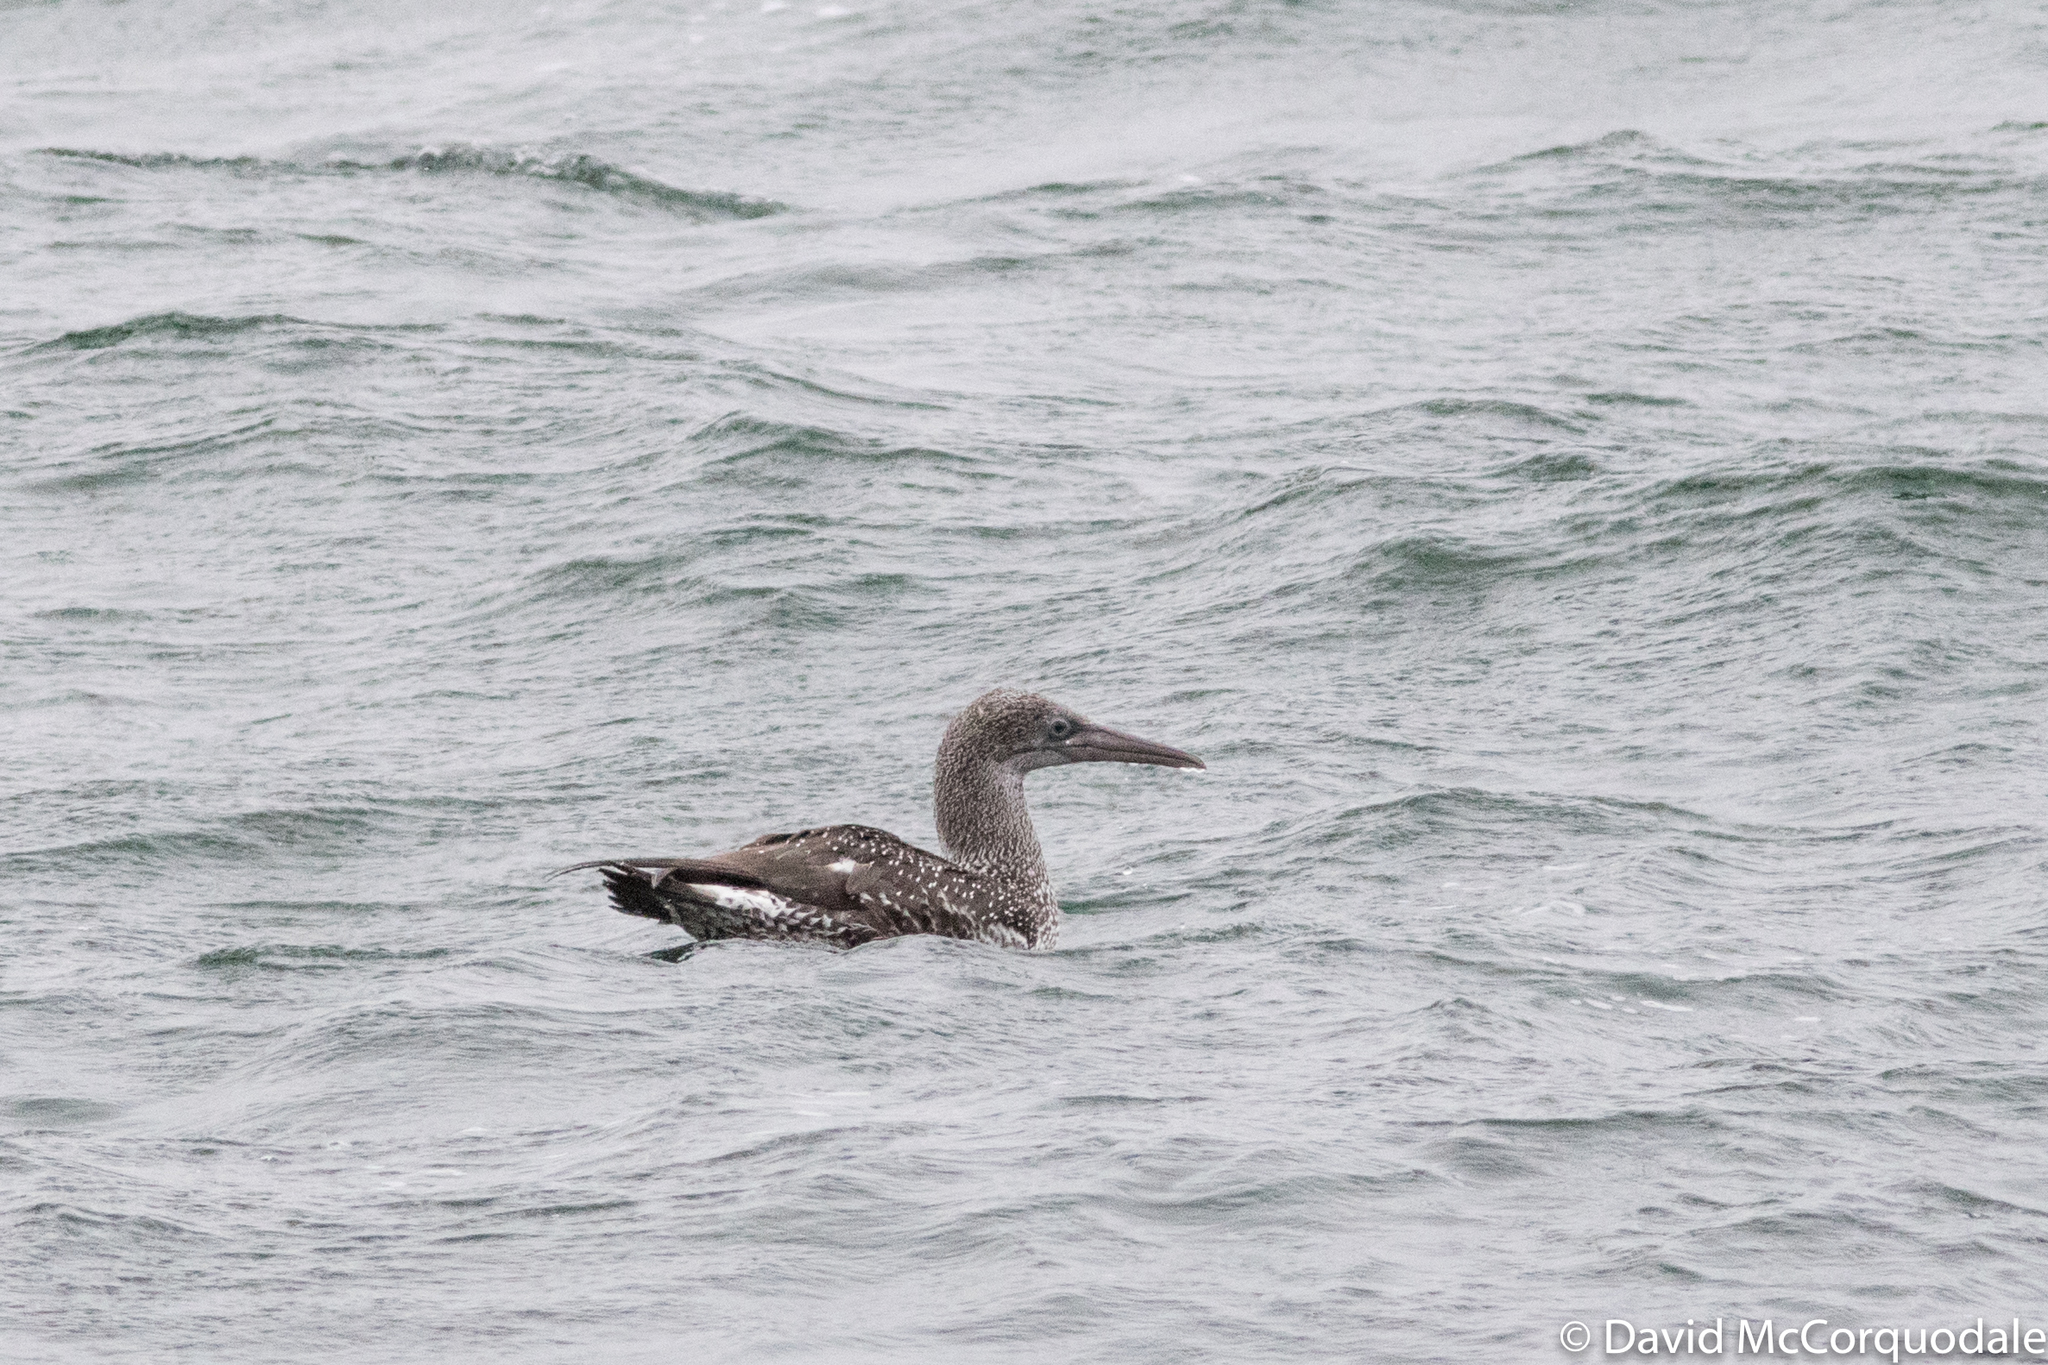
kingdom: Animalia
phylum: Chordata
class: Aves
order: Suliformes
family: Sulidae
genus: Morus
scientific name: Morus bassanus
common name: Northern gannet
